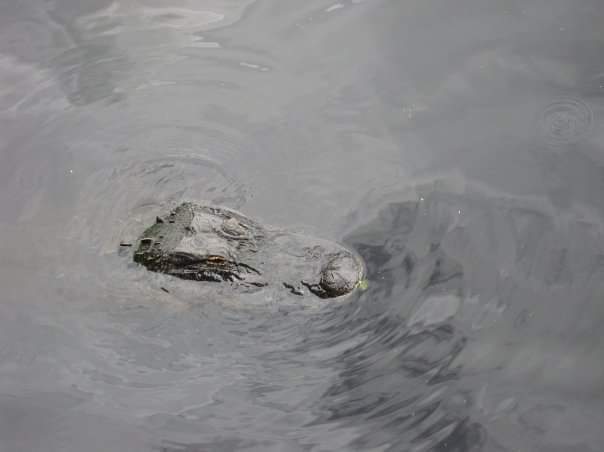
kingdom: Animalia
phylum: Chordata
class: Crocodylia
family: Alligatoridae
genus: Alligator
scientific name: Alligator mississippiensis
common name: American alligator
